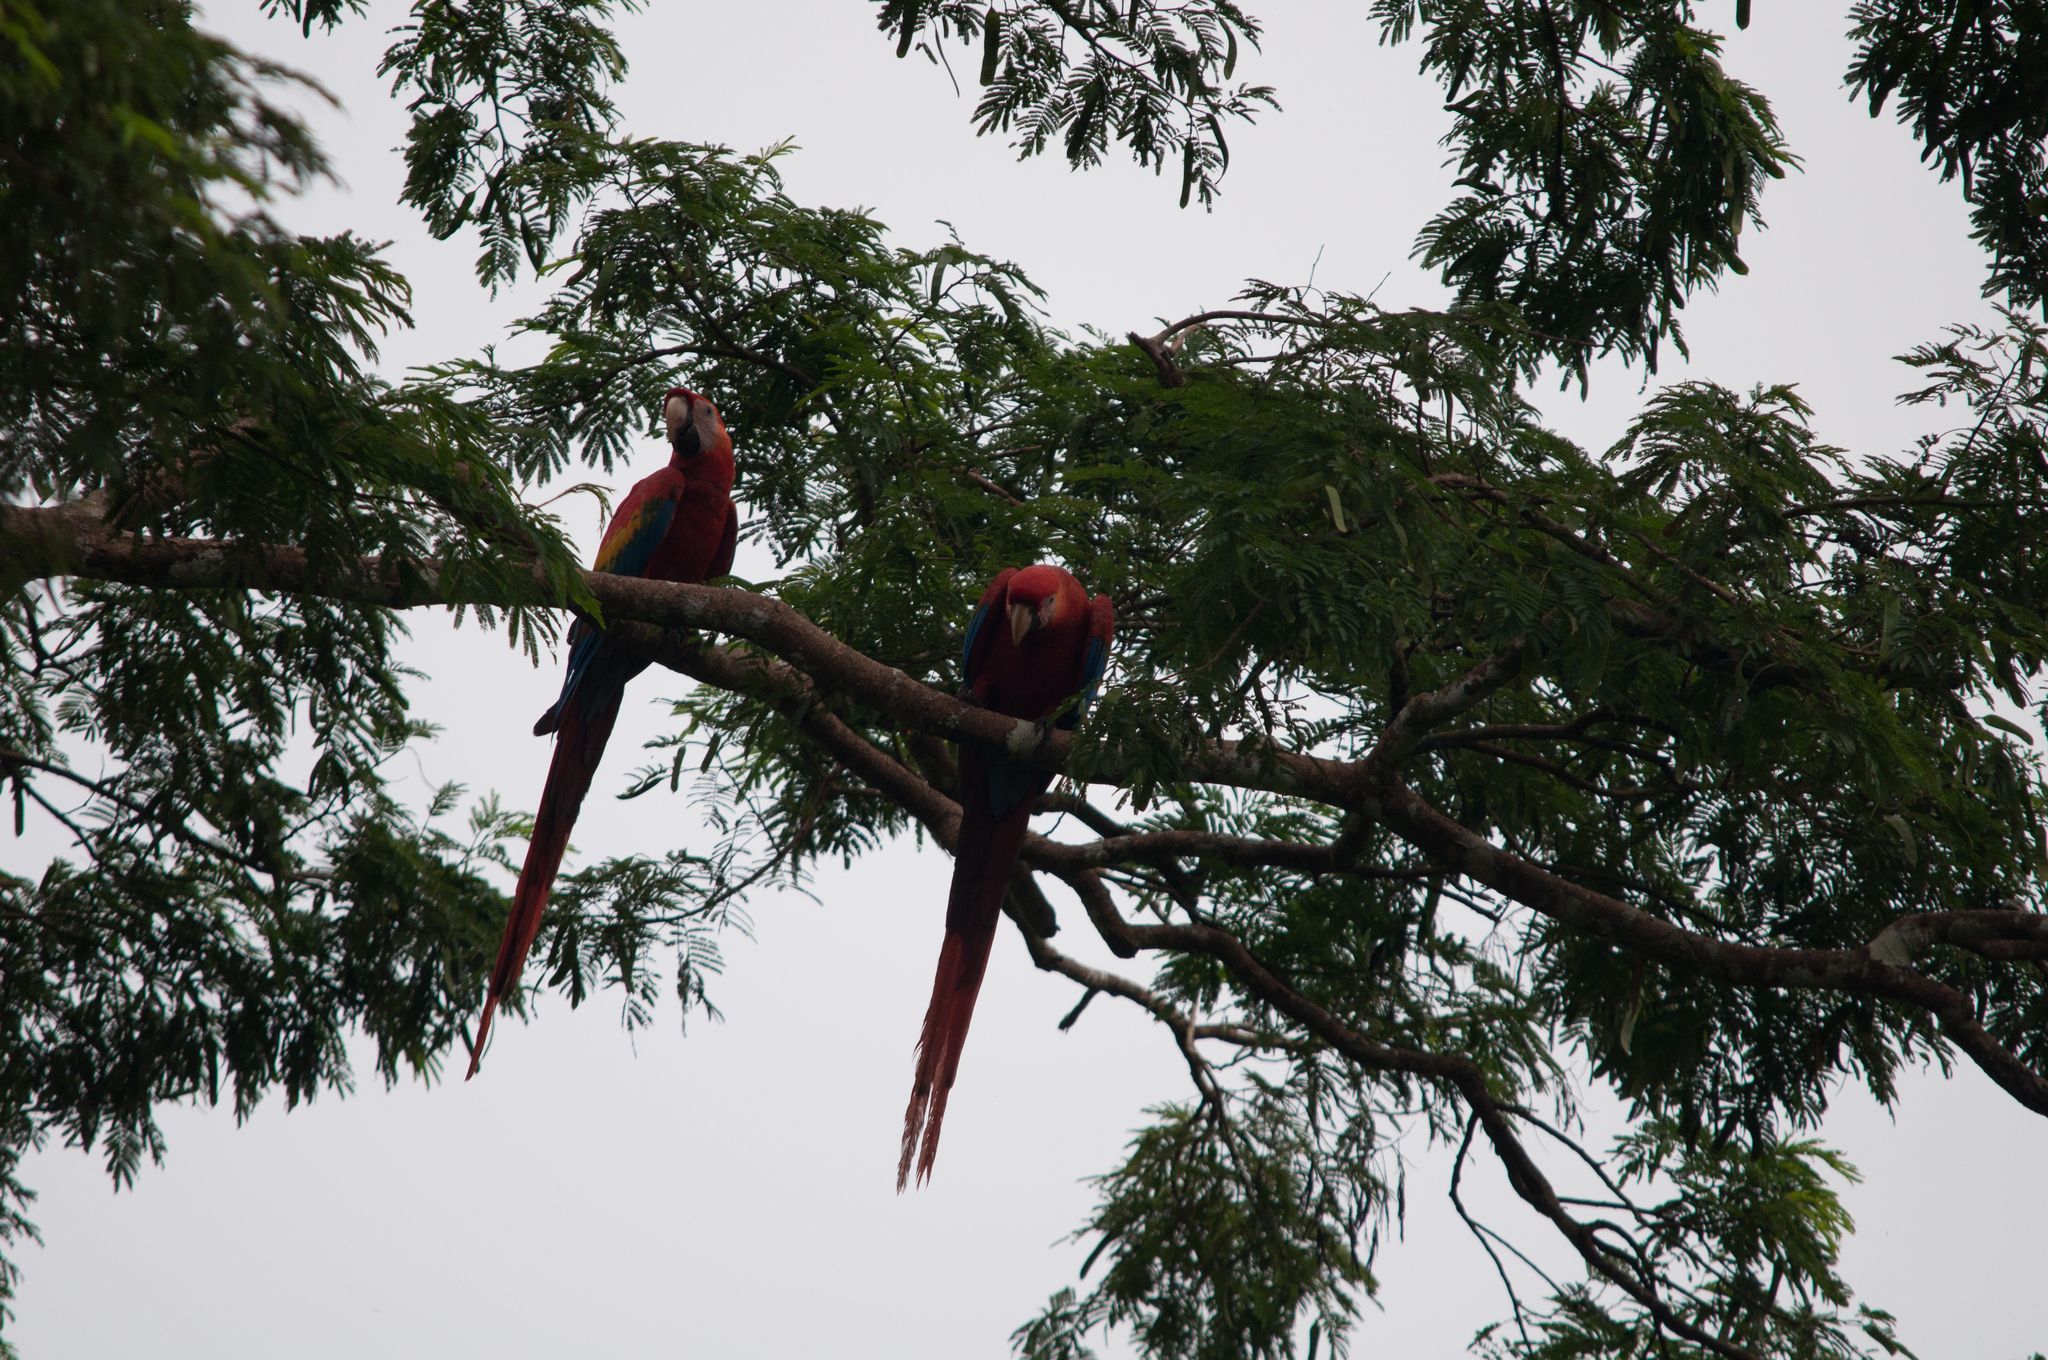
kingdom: Animalia
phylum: Chordata
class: Aves
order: Psittaciformes
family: Psittacidae
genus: Ara
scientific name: Ara macao
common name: Scarlet macaw
